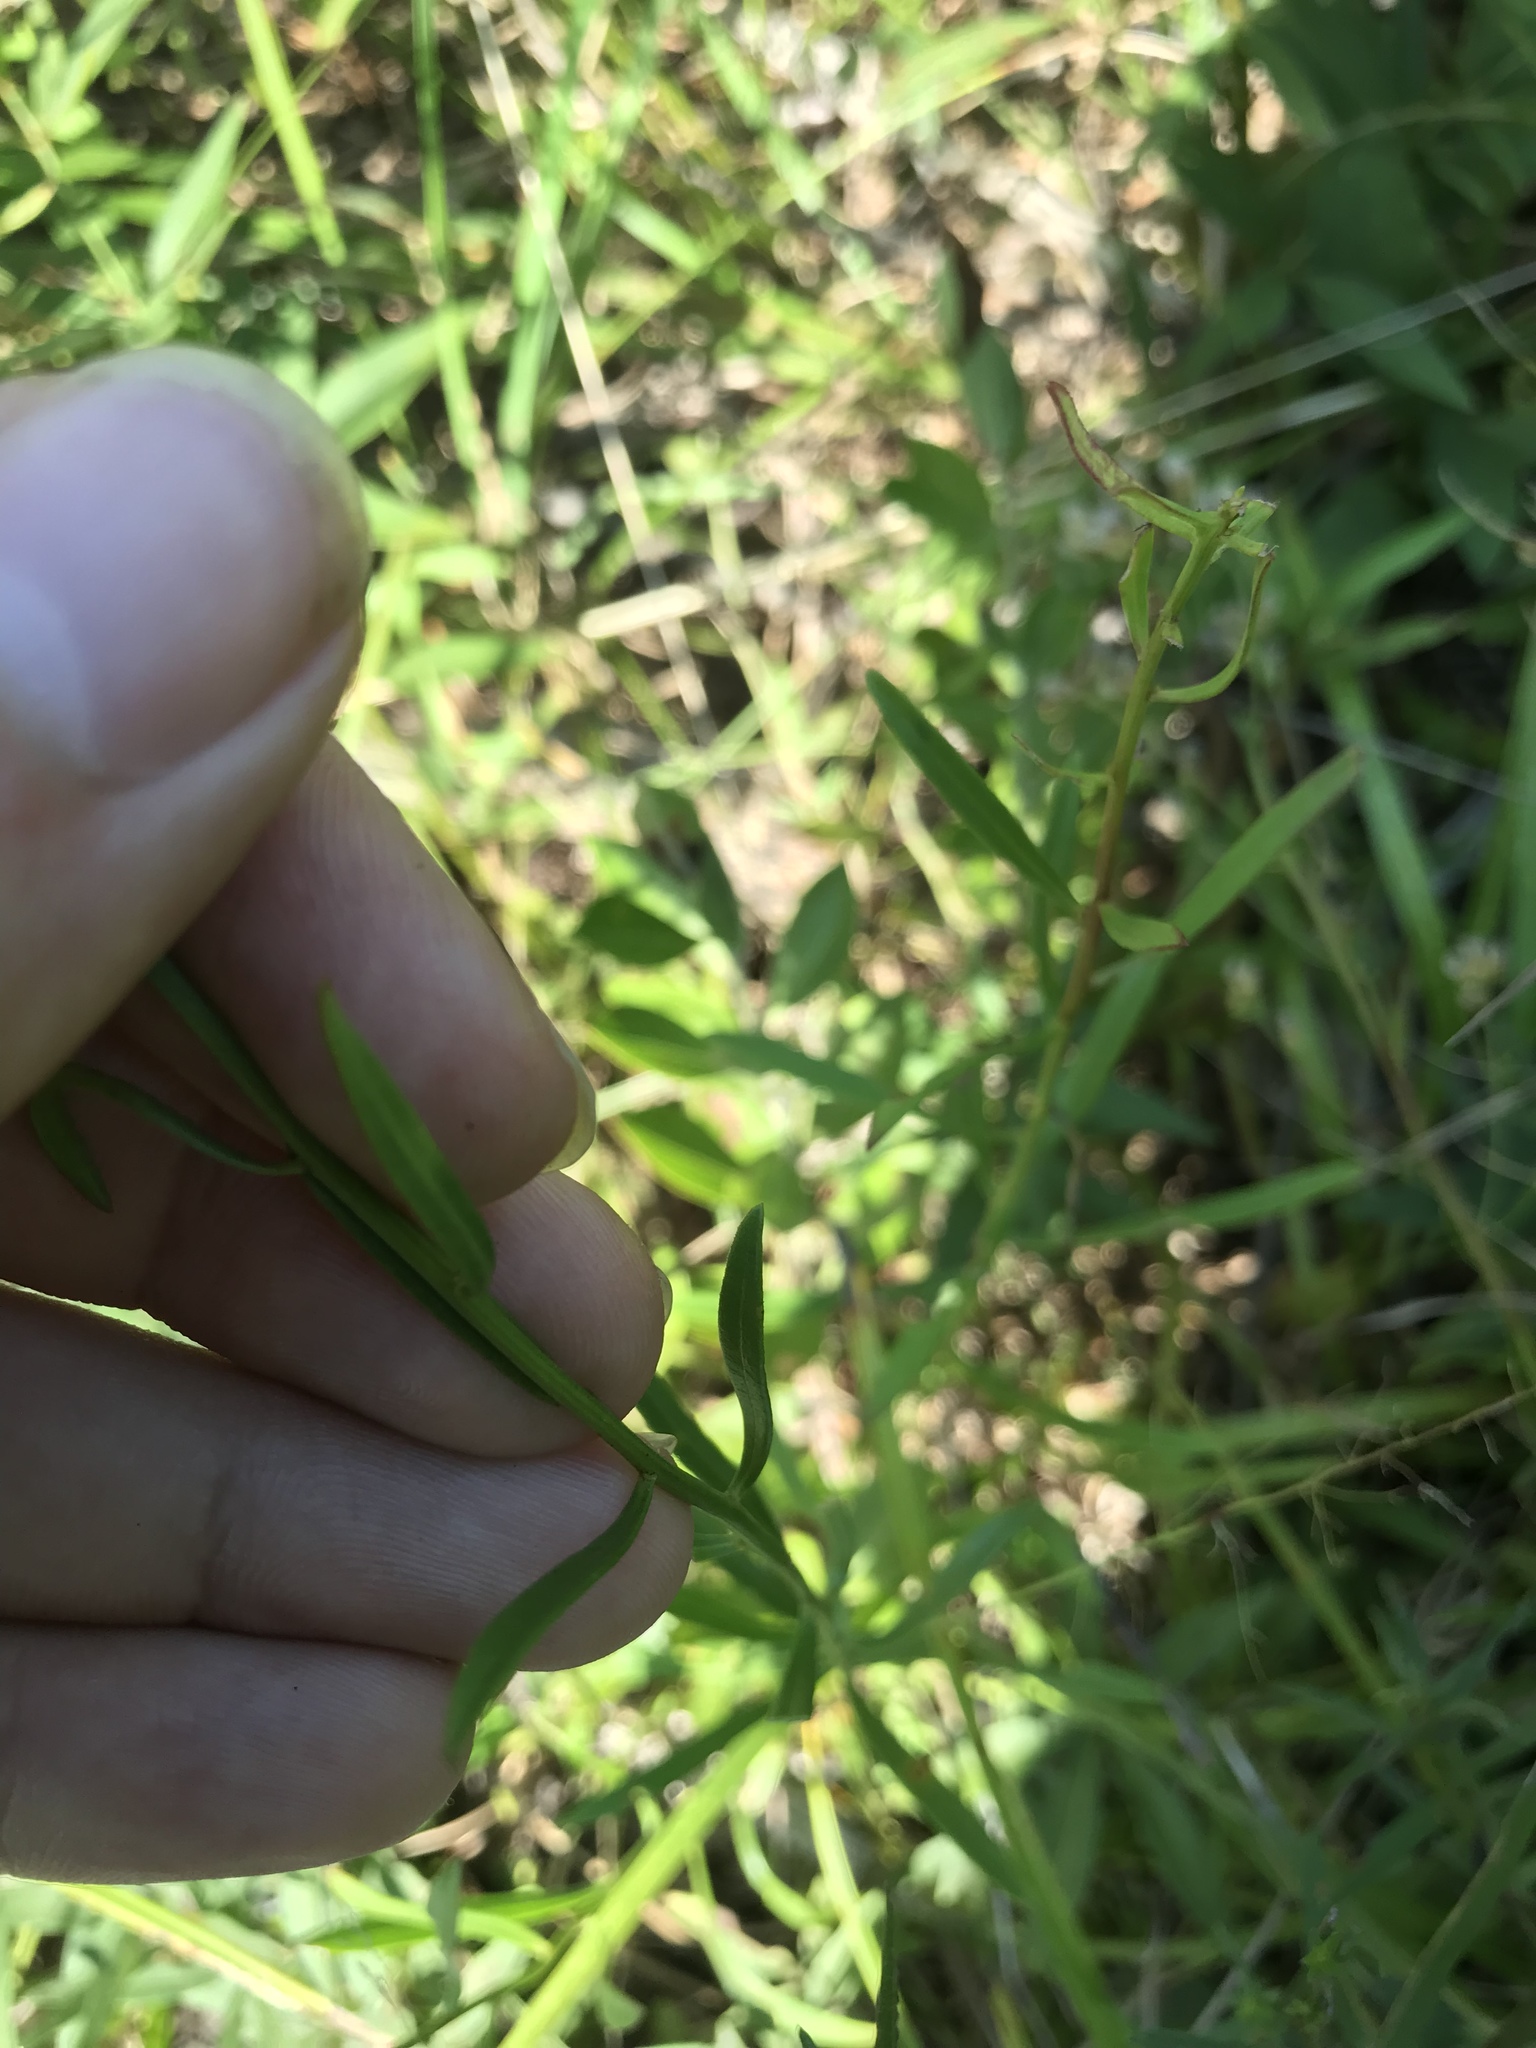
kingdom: Plantae
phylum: Tracheophyta
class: Magnoliopsida
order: Asterales
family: Asteraceae
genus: Sericocarpus
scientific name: Sericocarpus linifolius
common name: Narrow-leaf aster
